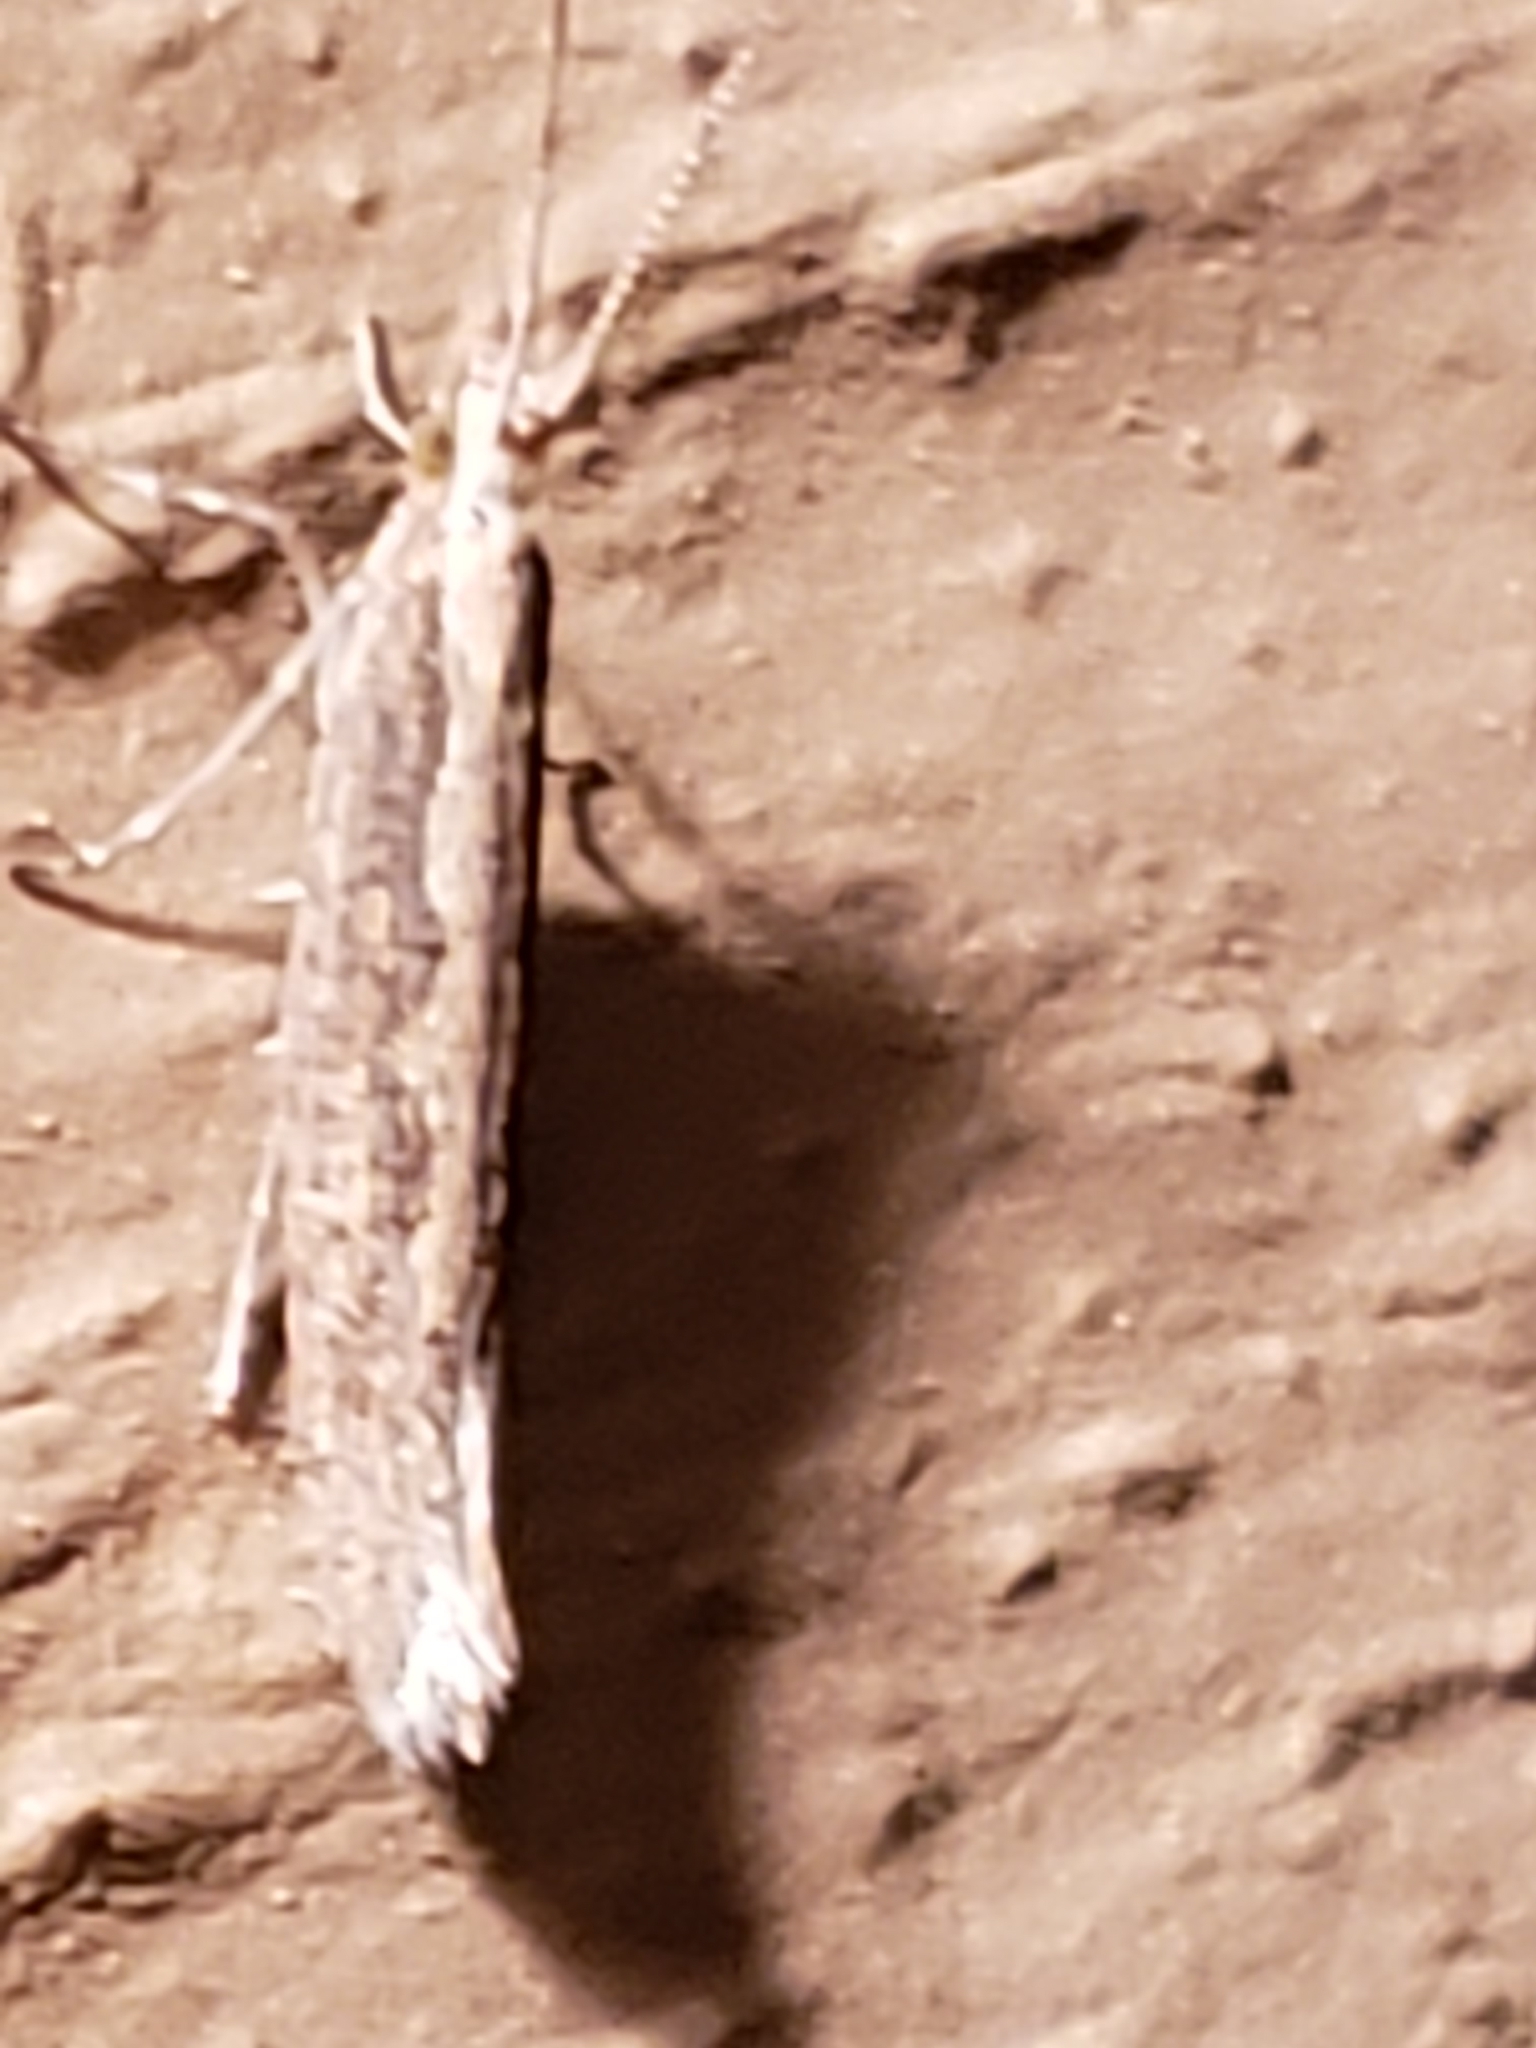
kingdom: Animalia
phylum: Arthropoda
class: Insecta
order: Lepidoptera
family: Plutellidae
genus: Plutella
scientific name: Plutella xylostella
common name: Diamond-back moth
